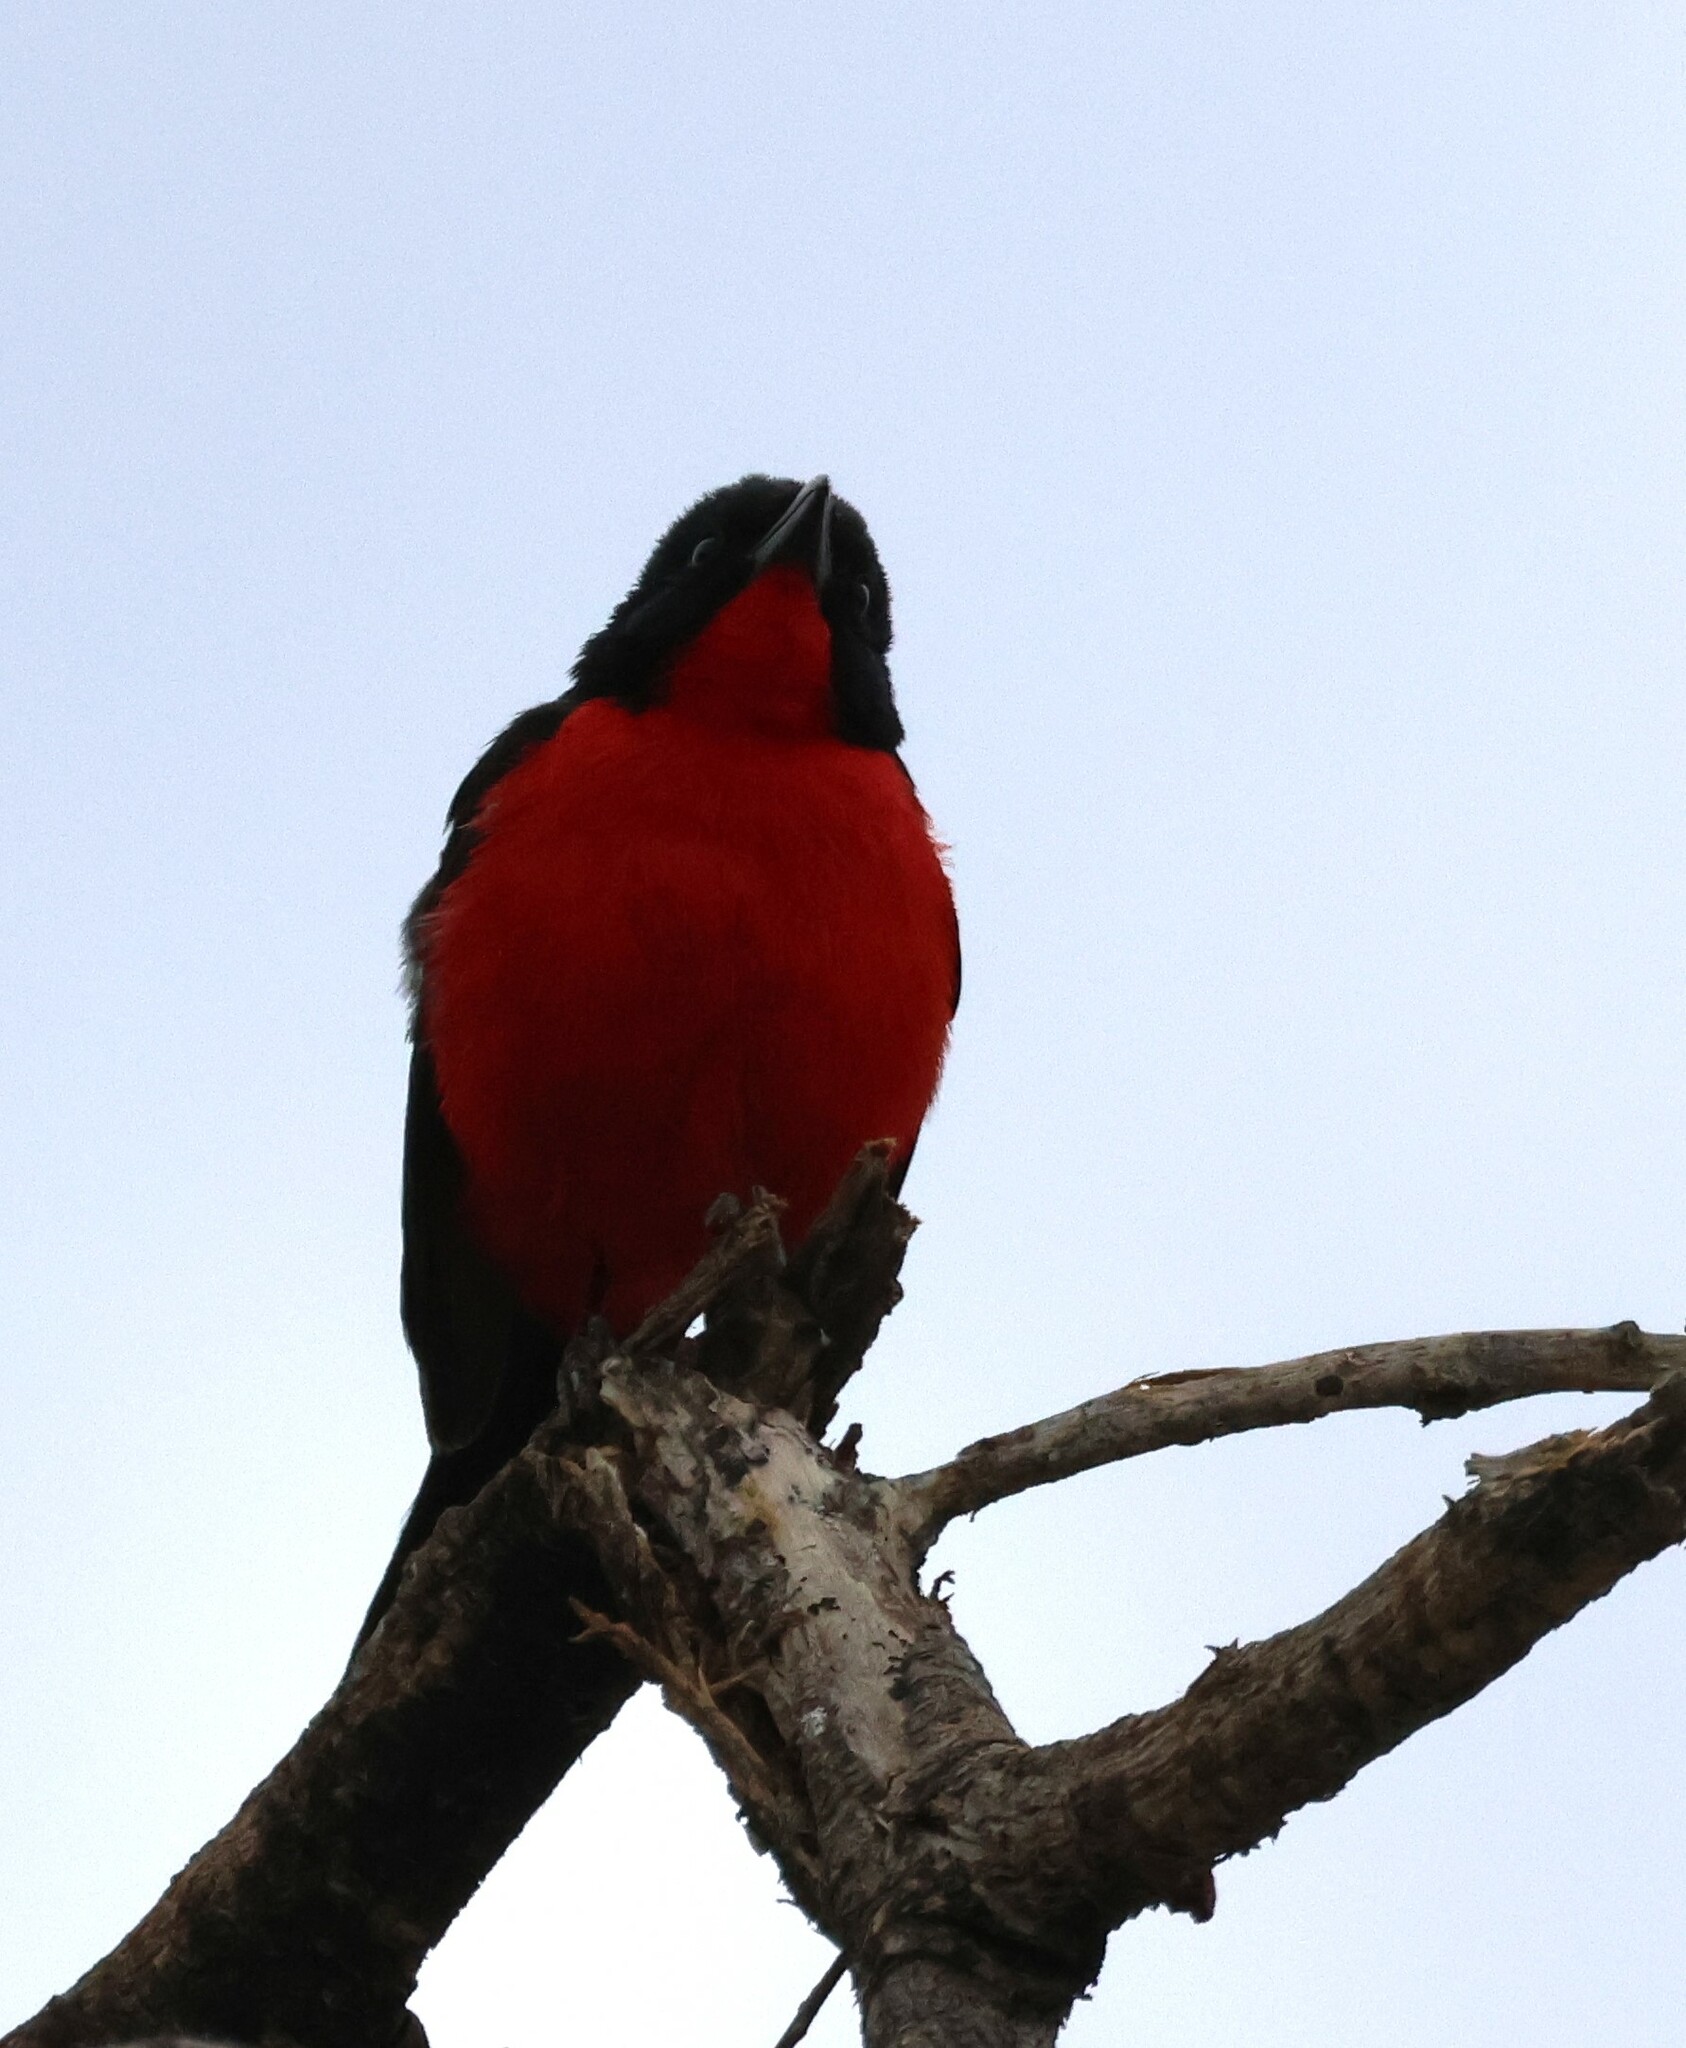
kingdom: Animalia
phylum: Chordata
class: Aves
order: Passeriformes
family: Malaconotidae
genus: Laniarius
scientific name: Laniarius atrococcineus
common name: Crimson-breasted shrike
